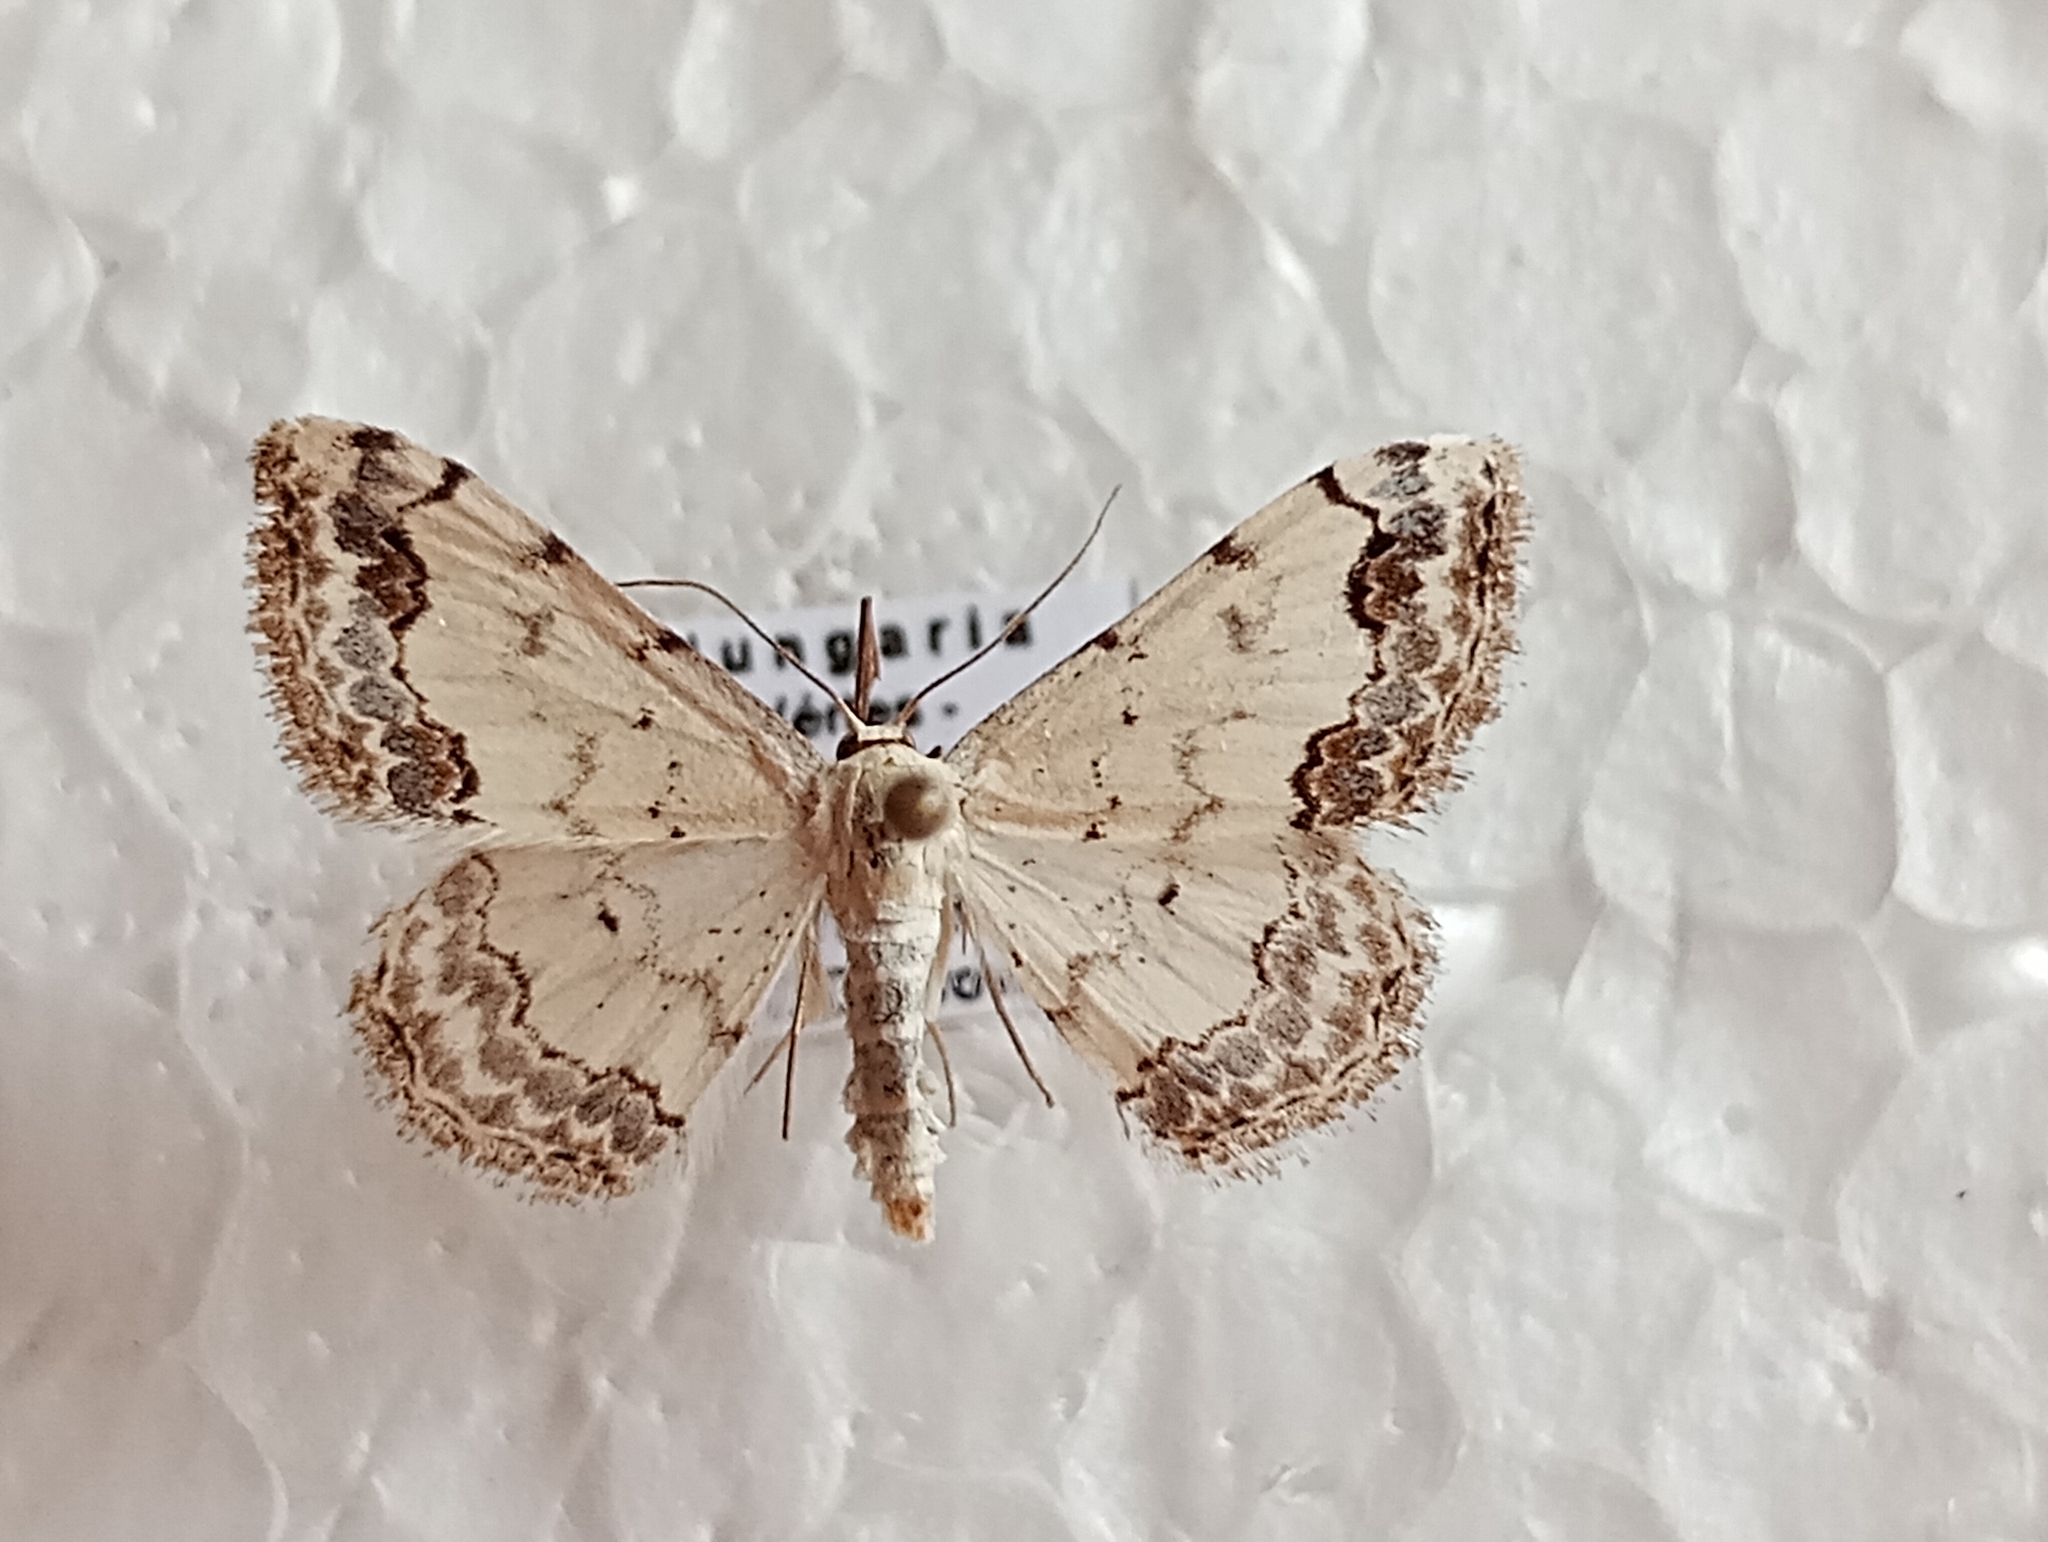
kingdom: Animalia
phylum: Arthropoda
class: Insecta
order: Lepidoptera
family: Geometridae
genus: Scopula
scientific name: Scopula decorata
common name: Middle lace border
